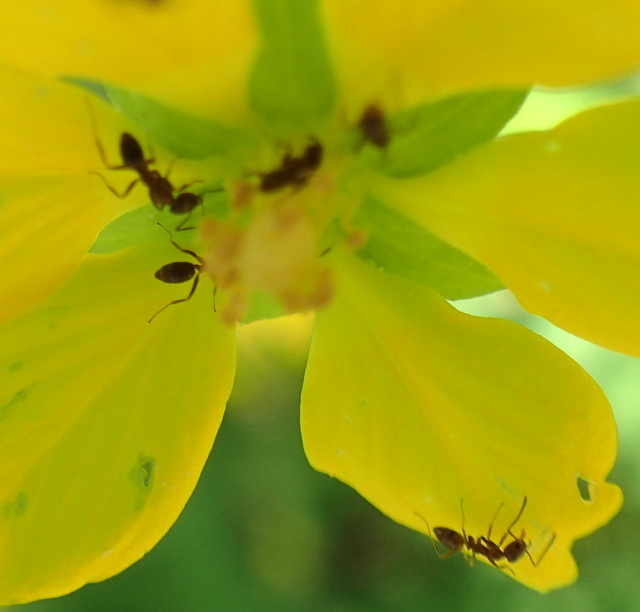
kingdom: Animalia
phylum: Arthropoda
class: Insecta
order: Hymenoptera
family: Formicidae
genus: Linepithema
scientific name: Linepithema humile
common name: Argentine ant
